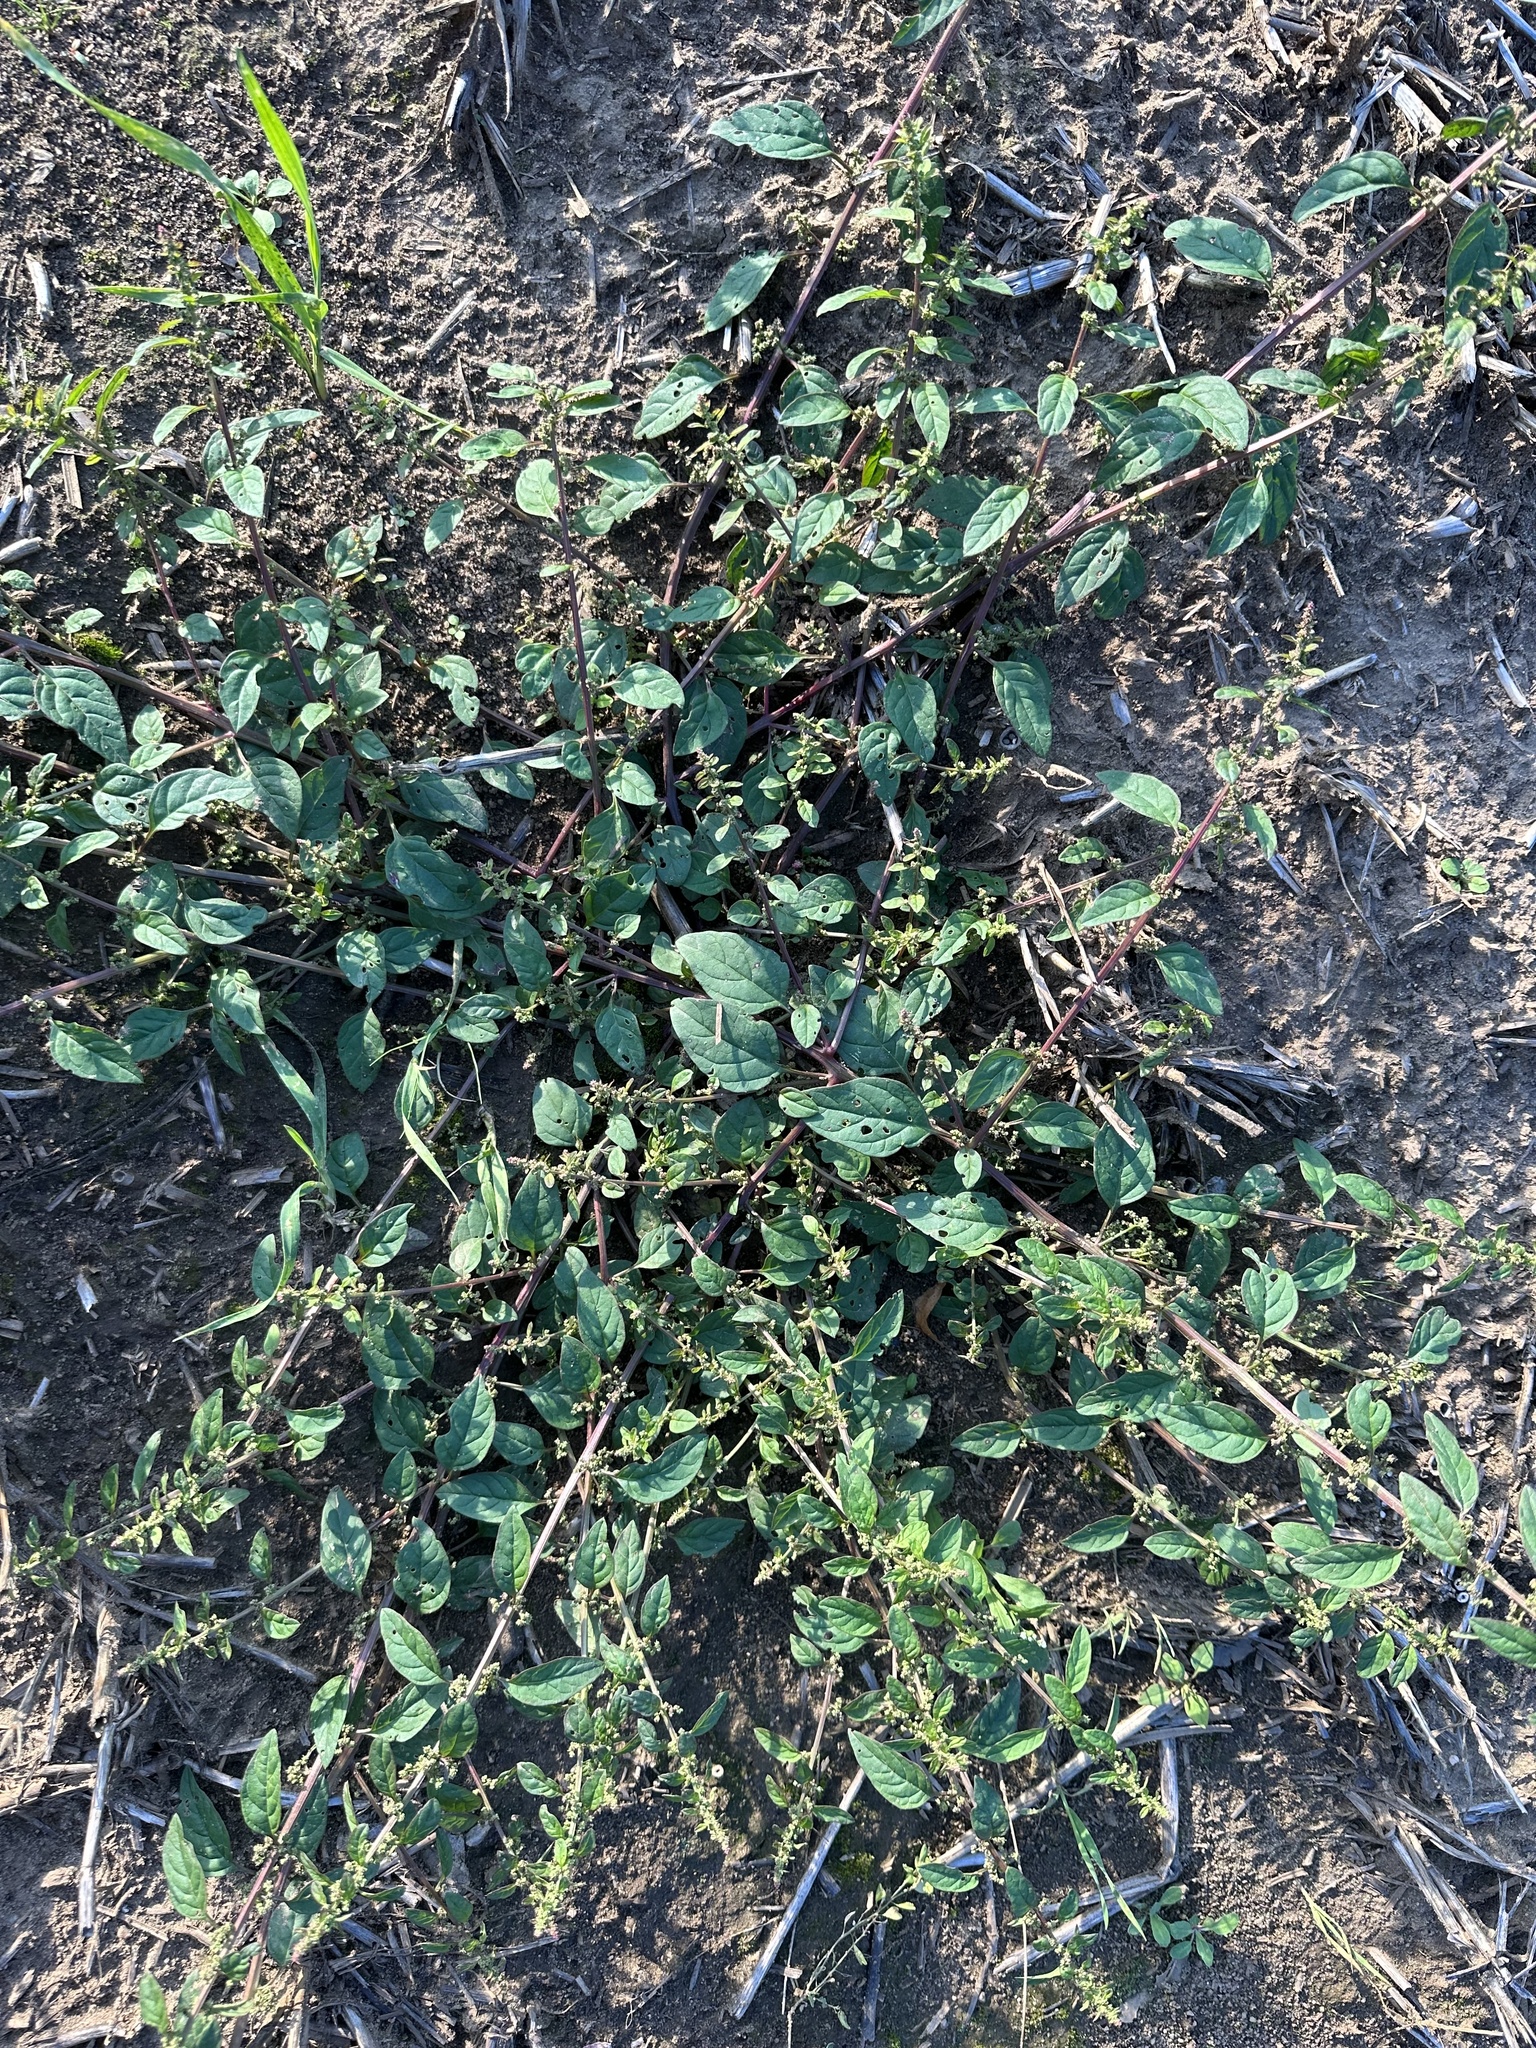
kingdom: Plantae
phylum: Tracheophyta
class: Magnoliopsida
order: Caryophyllales
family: Amaranthaceae
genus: Lipandra
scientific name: Lipandra polysperma
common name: Many-seed goosefoot
